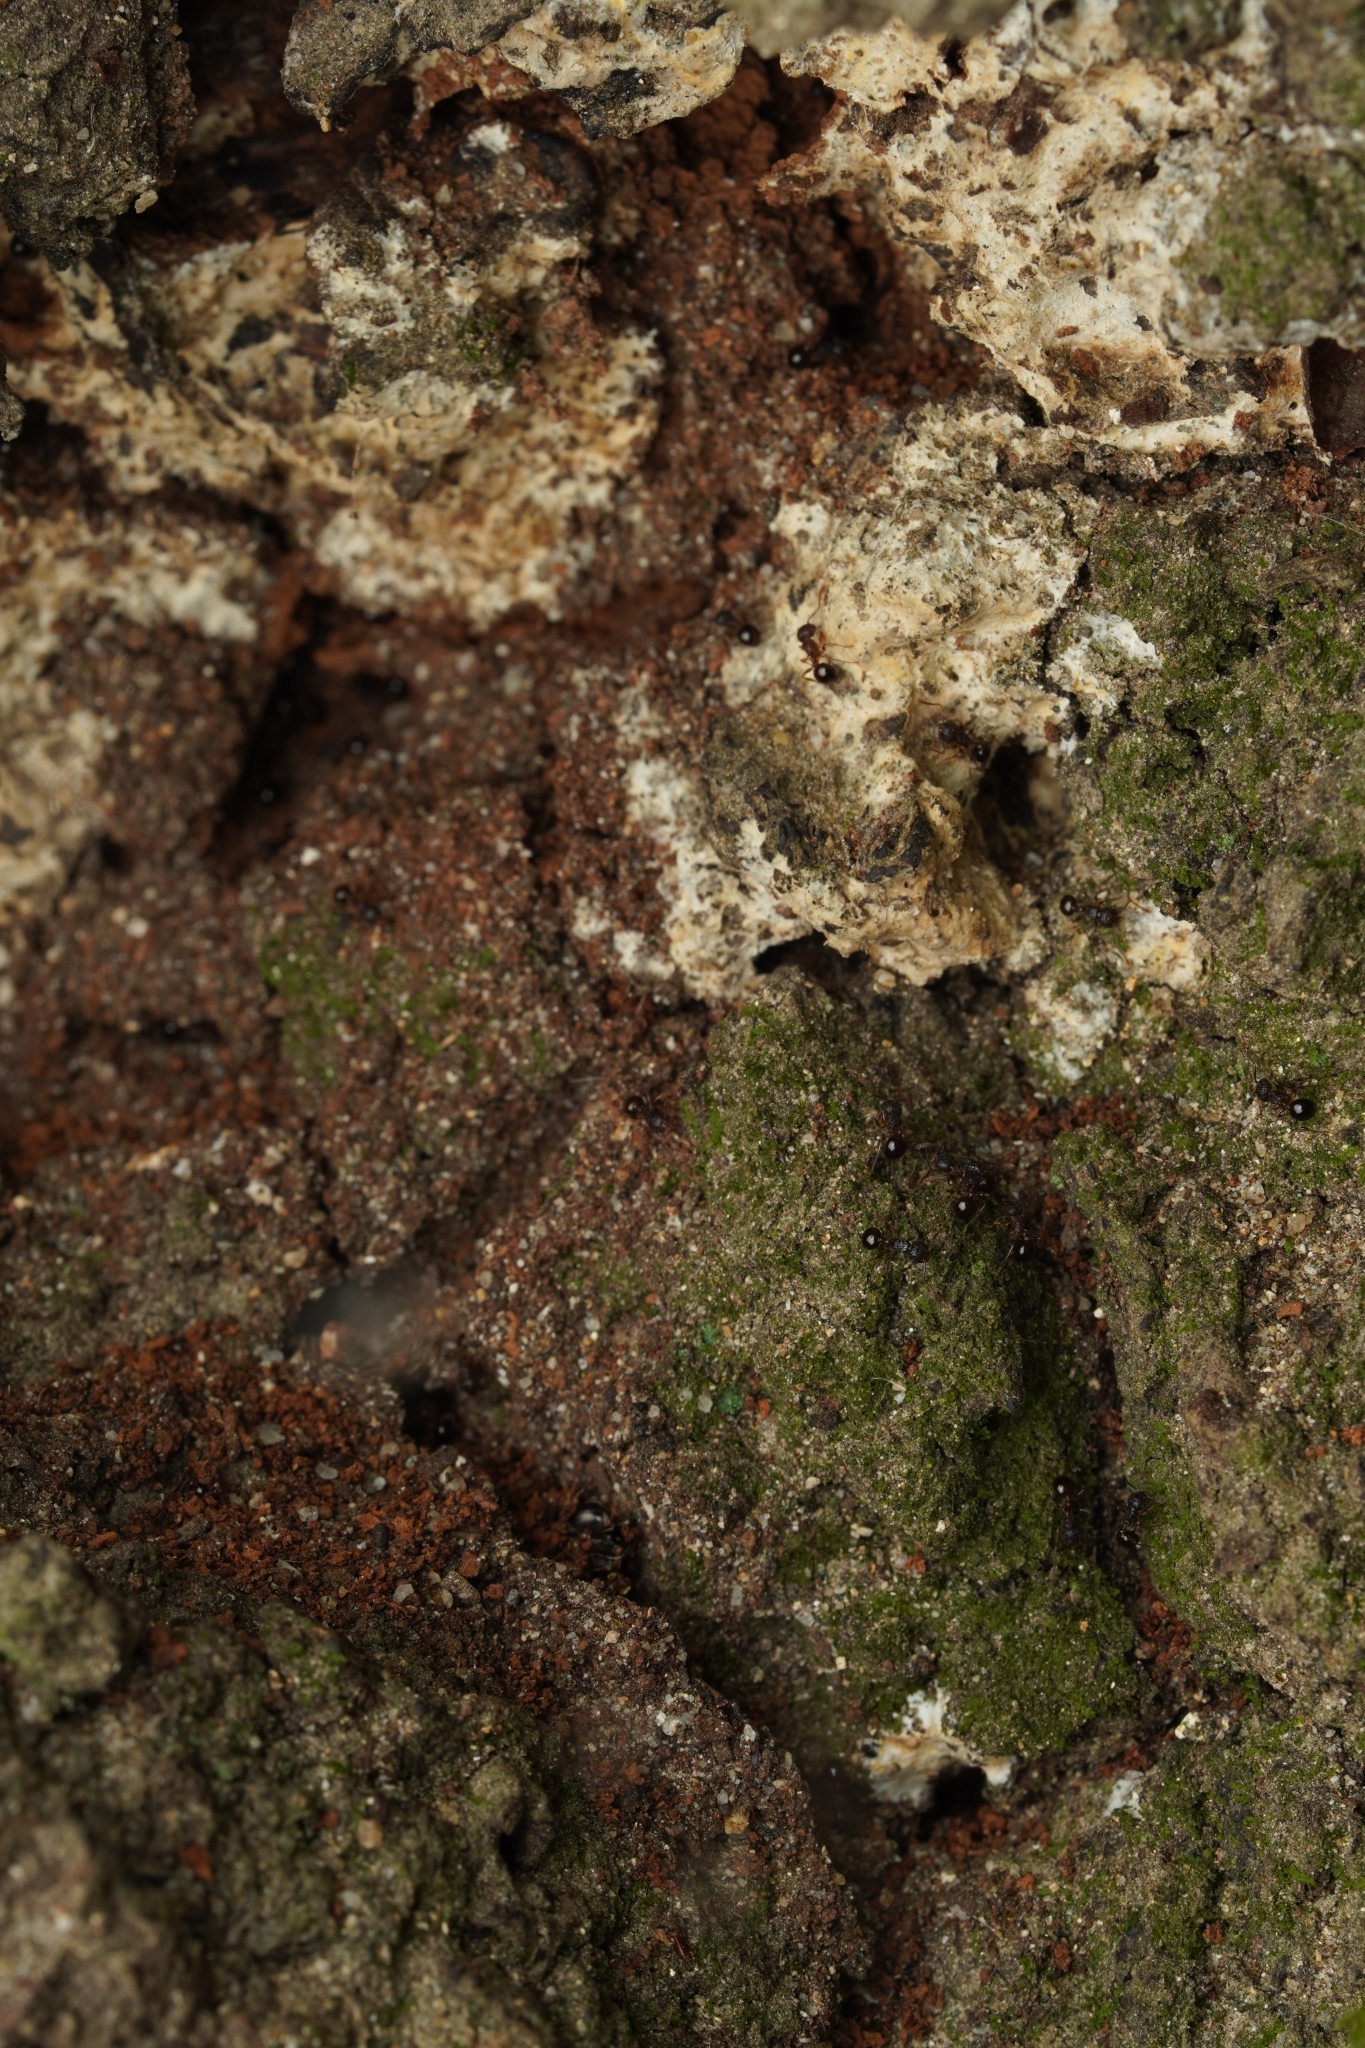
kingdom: Animalia
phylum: Arthropoda
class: Insecta
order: Hymenoptera
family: Formicidae
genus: Pristomyrmex
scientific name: Pristomyrmex punctatus
